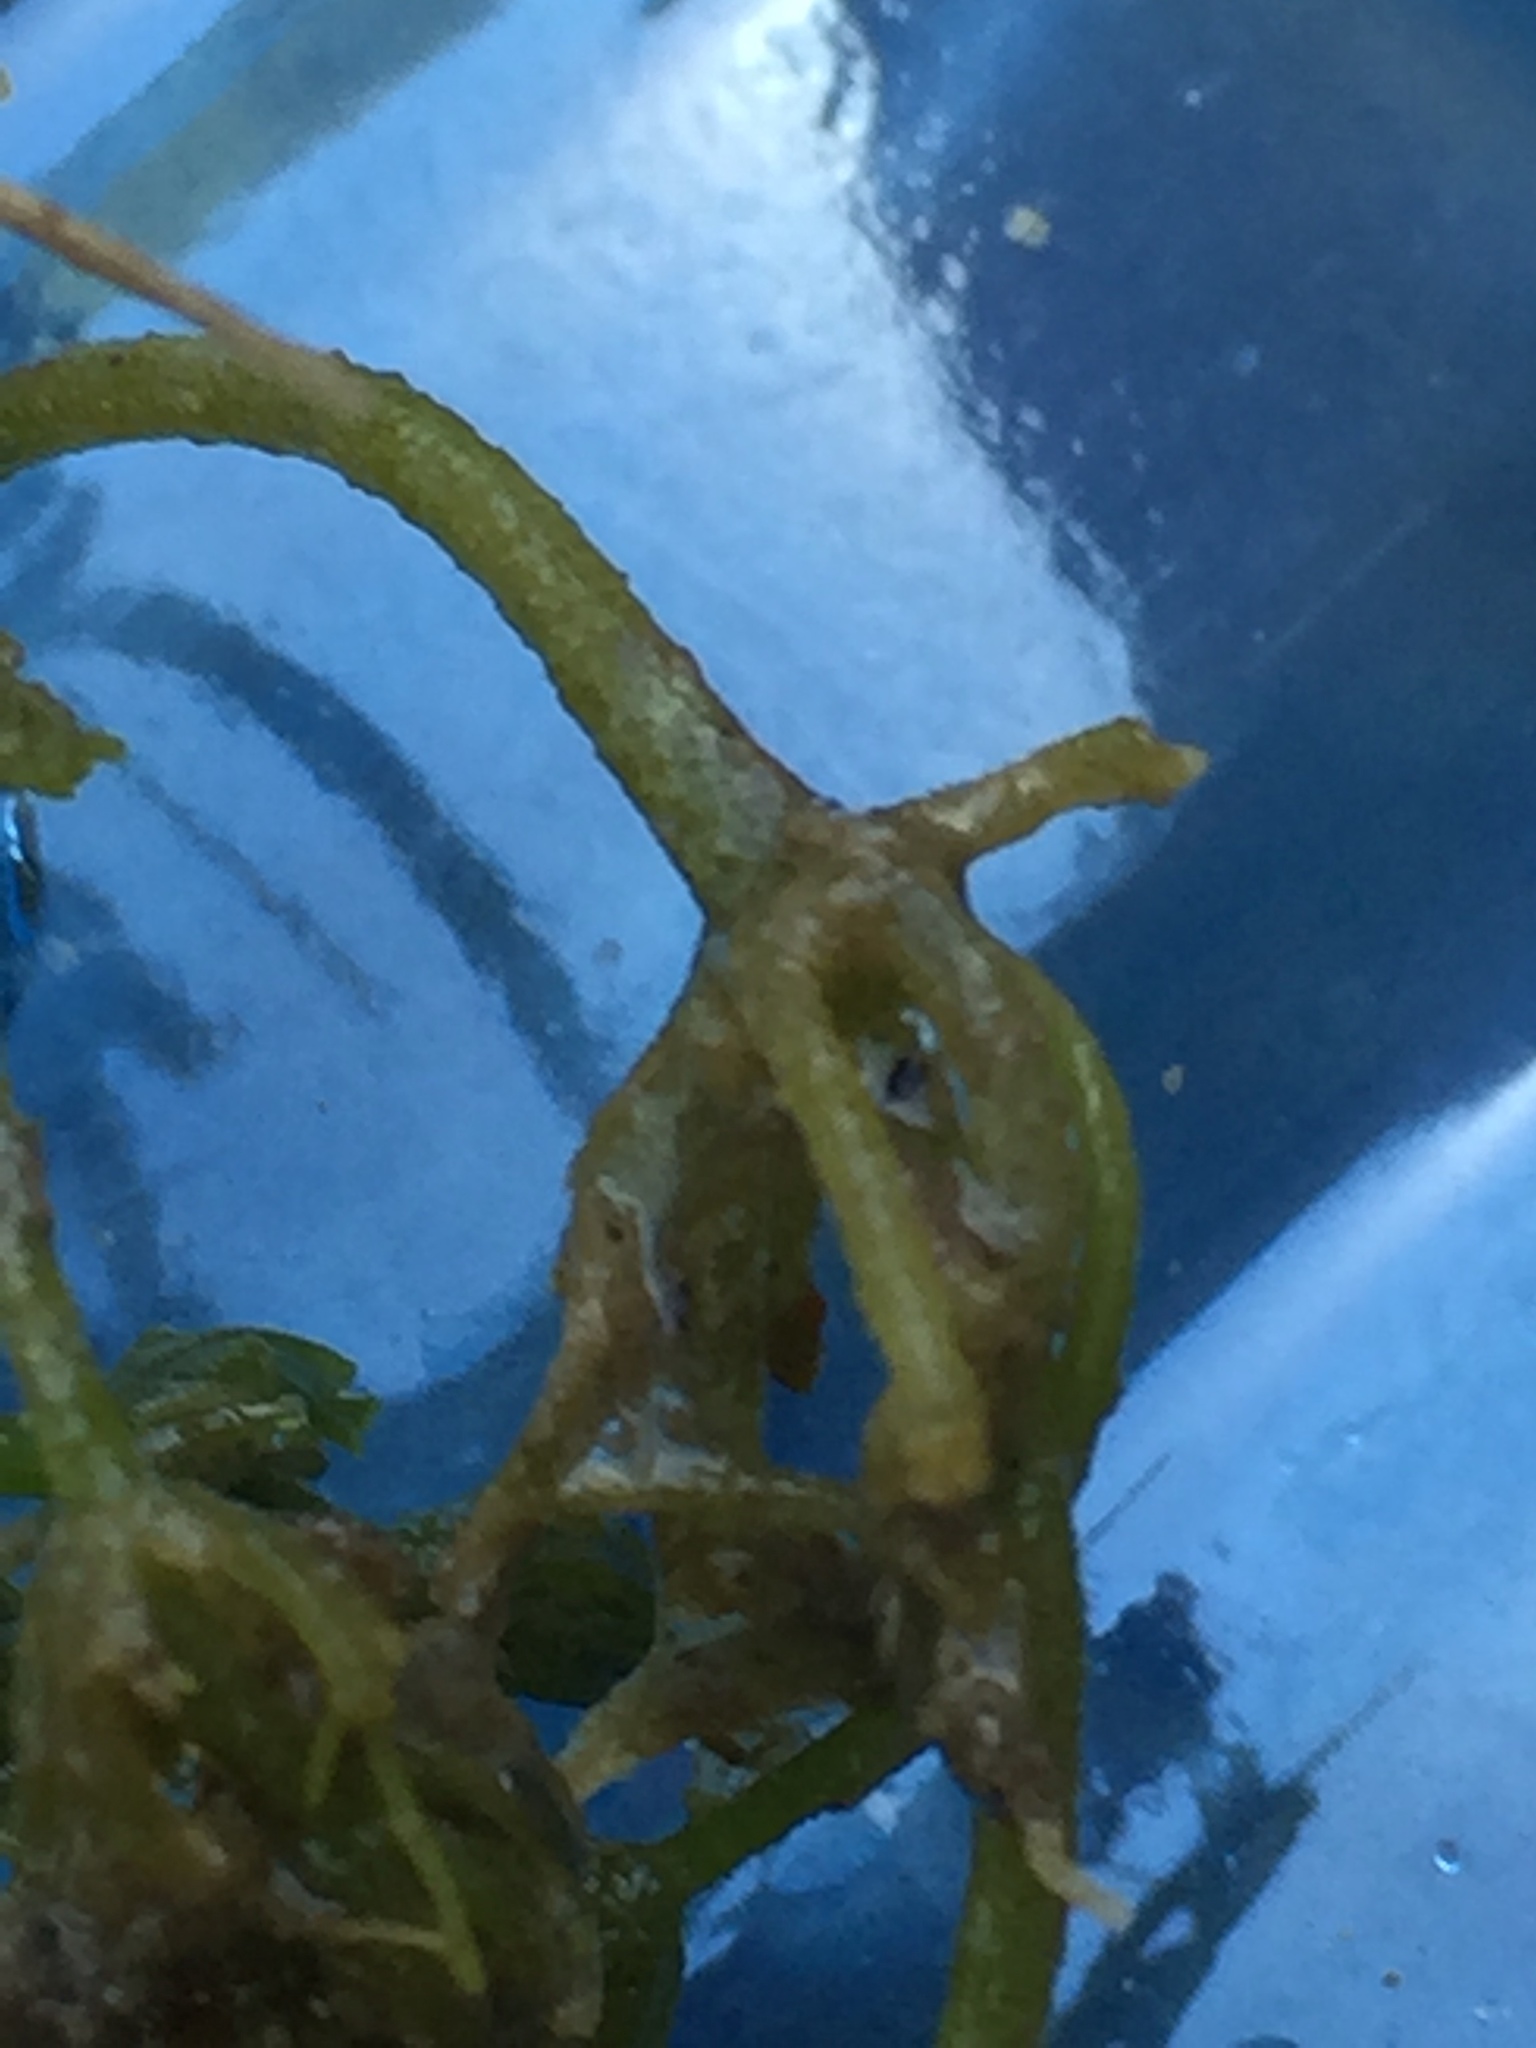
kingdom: Plantae
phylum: Charophyta
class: Charophyceae
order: Charales
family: Characeae
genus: Chara
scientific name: Chara
